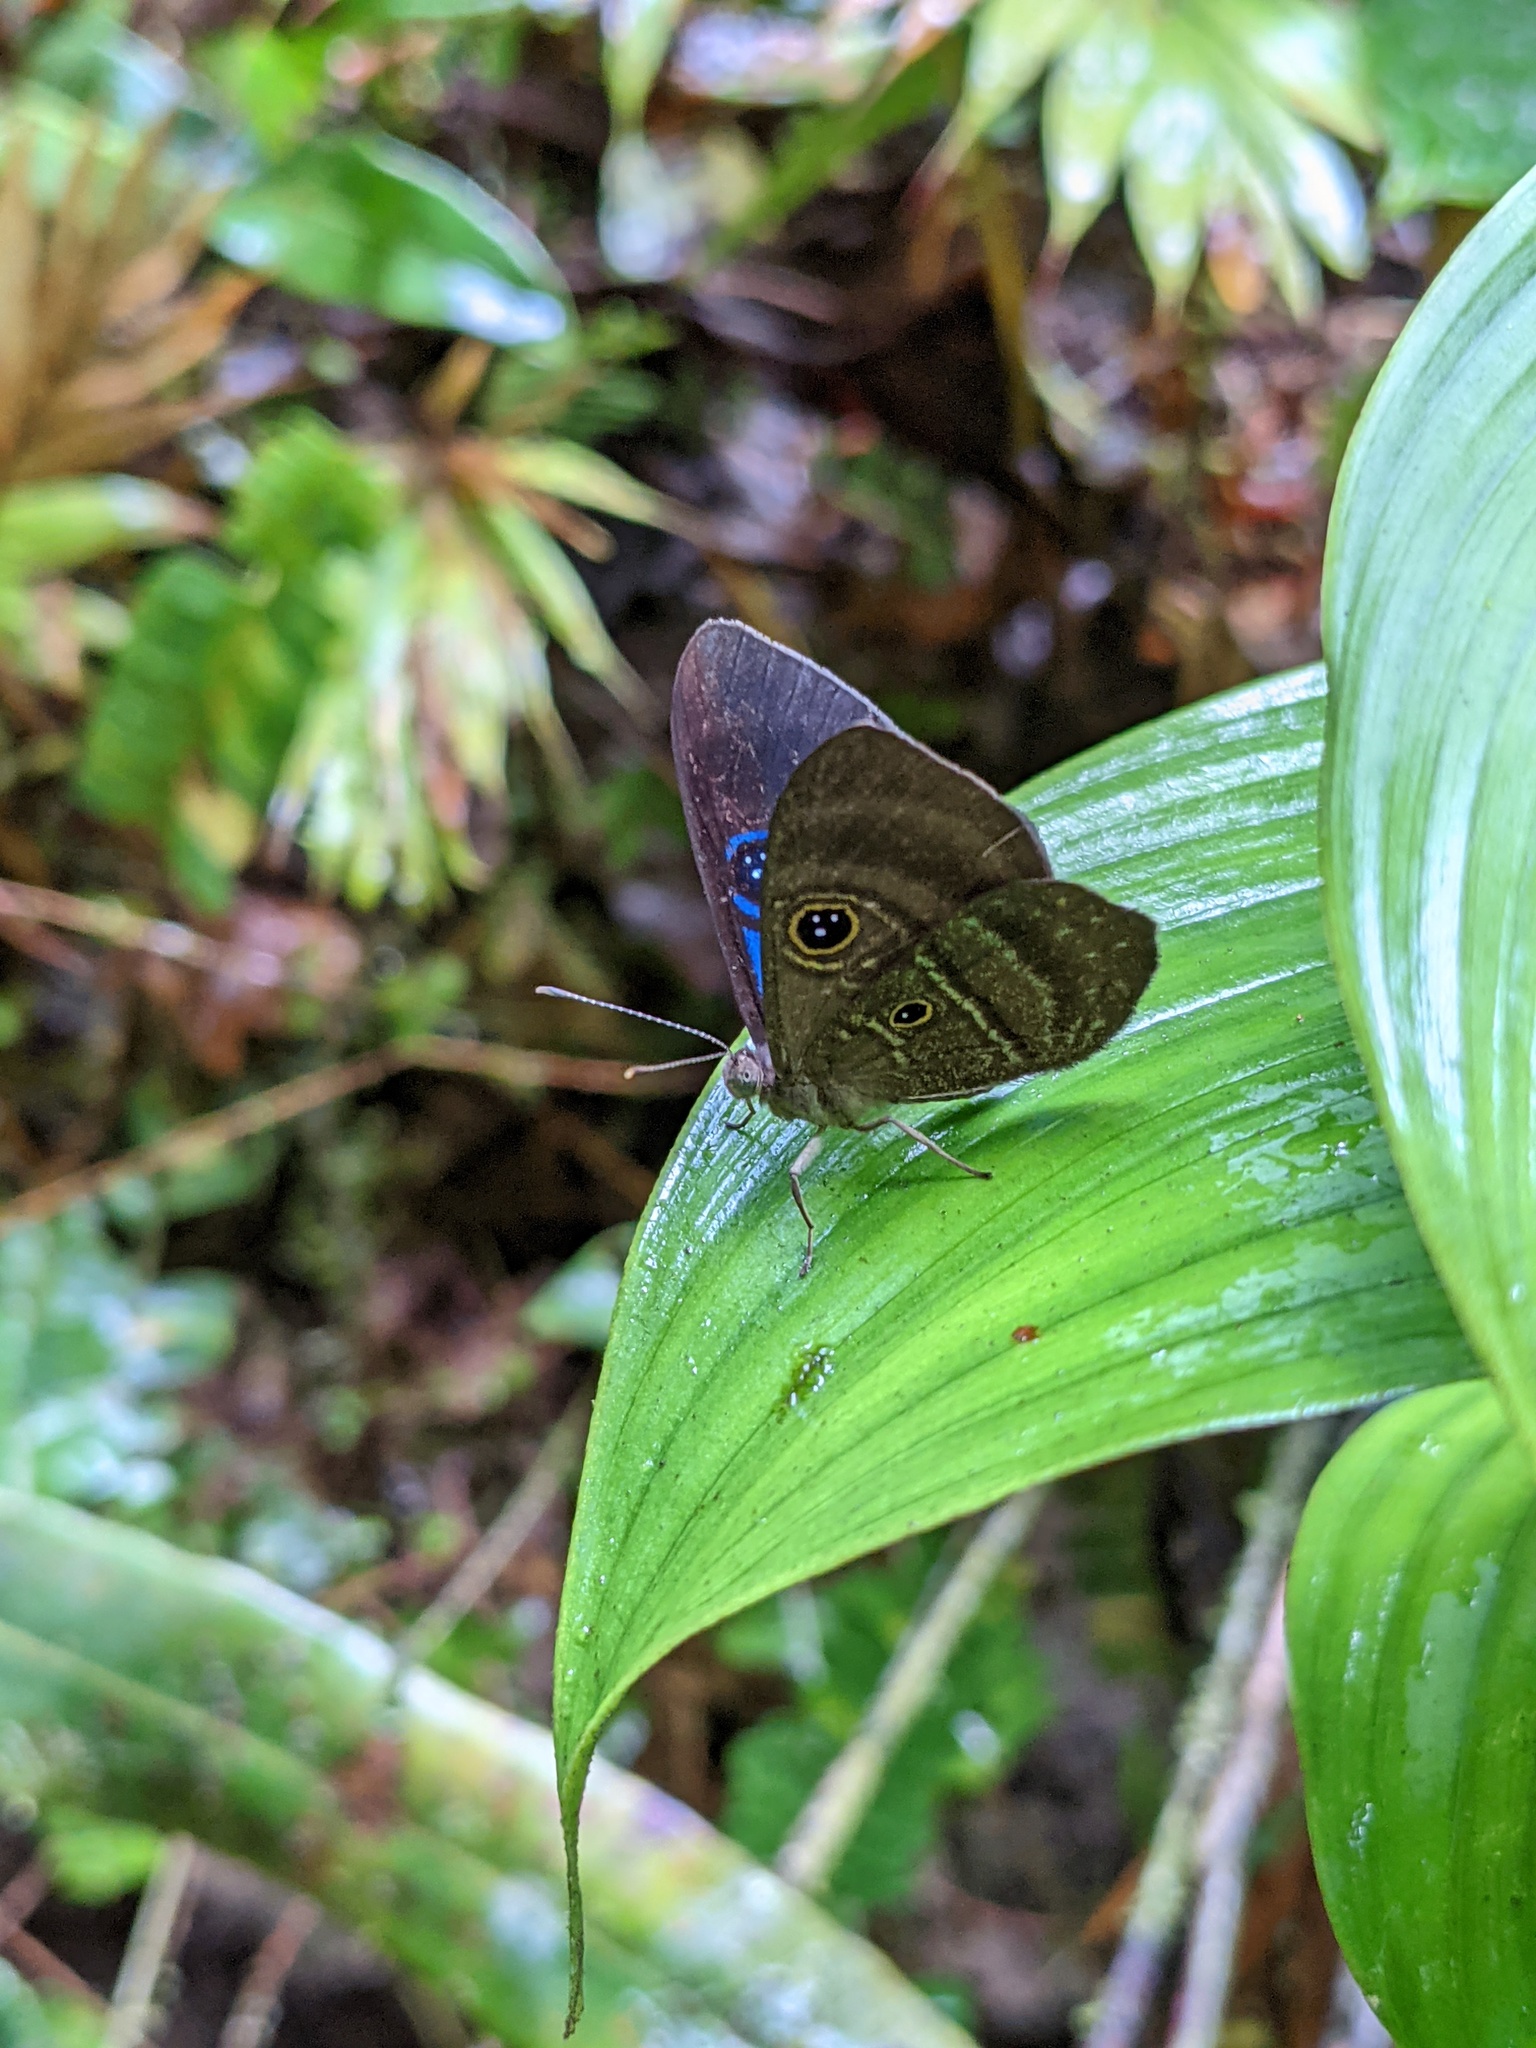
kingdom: Animalia
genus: Mesosemia
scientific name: Mesosemia asa
